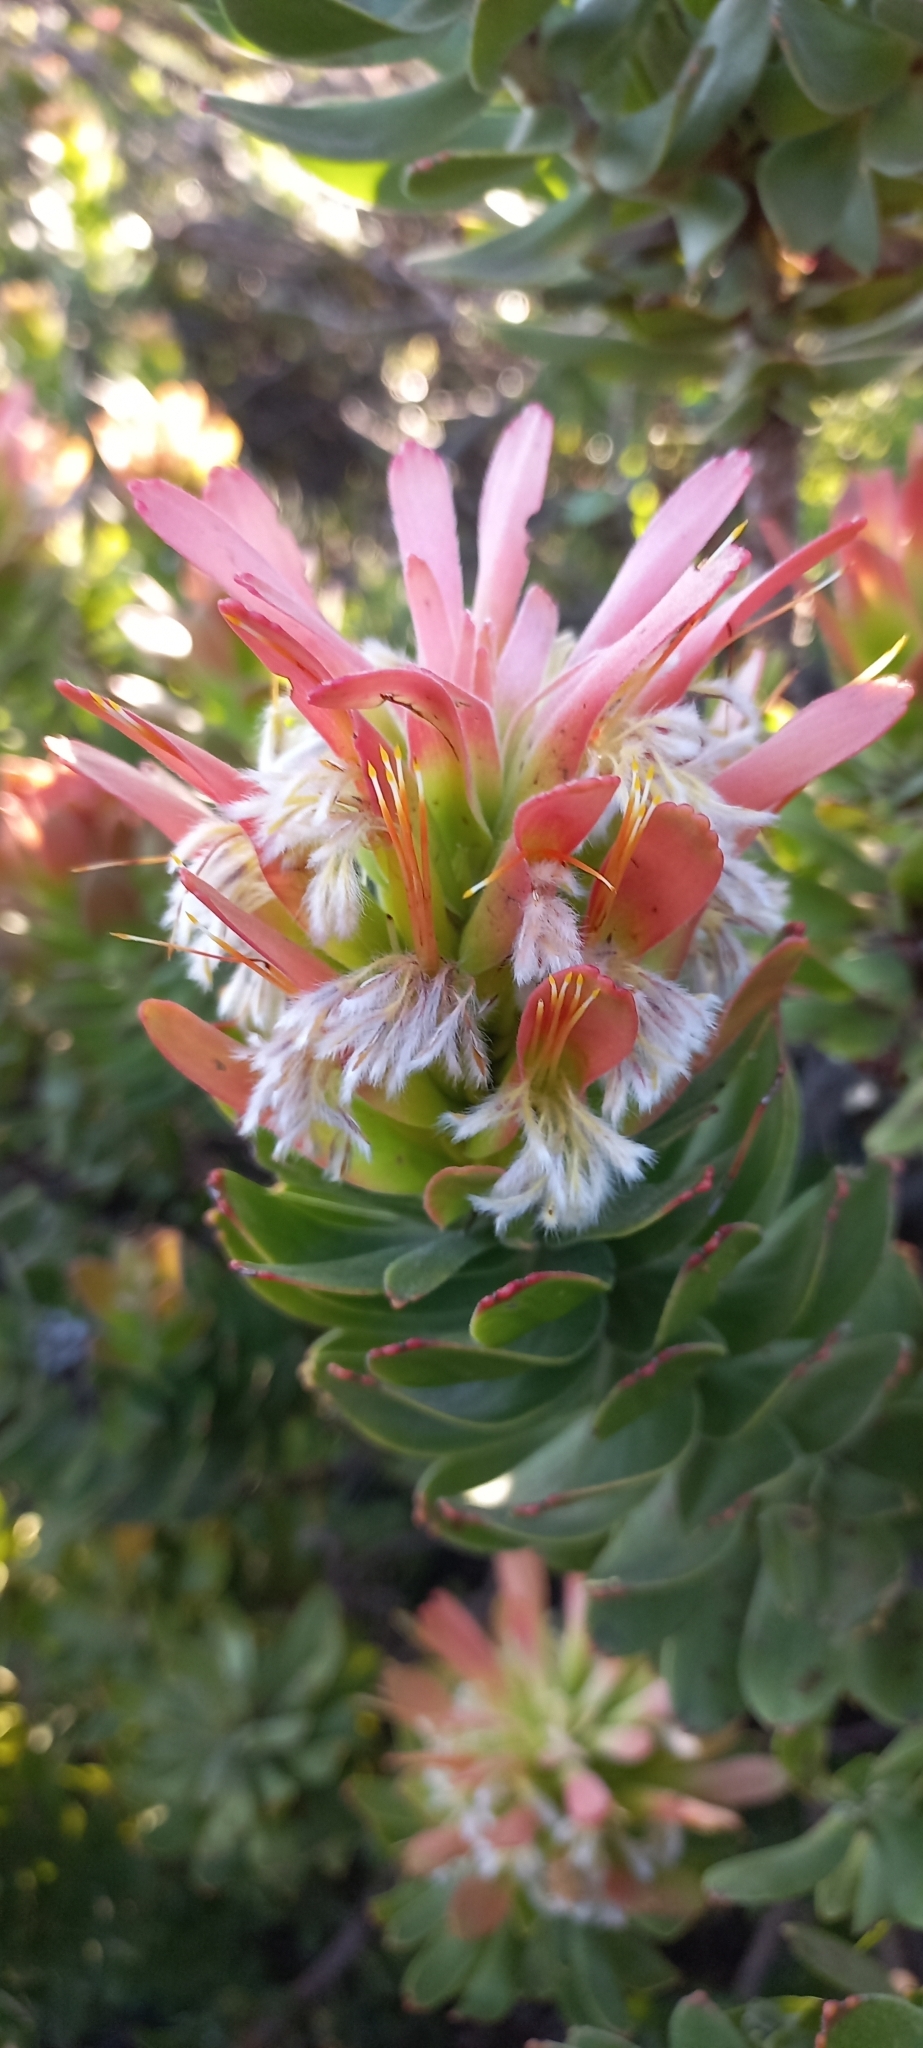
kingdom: Plantae
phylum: Tracheophyta
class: Magnoliopsida
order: Proteales
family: Proteaceae
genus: Mimetes
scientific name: Mimetes cucullatus
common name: Common pagoda
